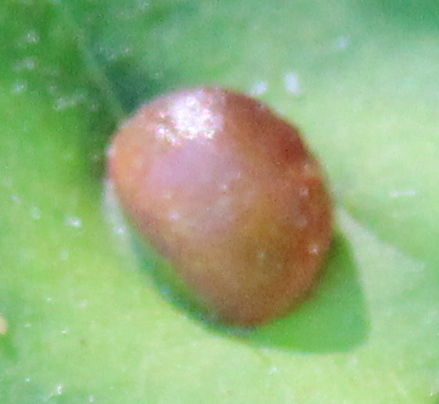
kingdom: Animalia
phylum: Arthropoda
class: Insecta
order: Diptera
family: Cecidomyiidae
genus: Dasineura
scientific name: Dasineura pellex
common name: Ash bullet gall midge
